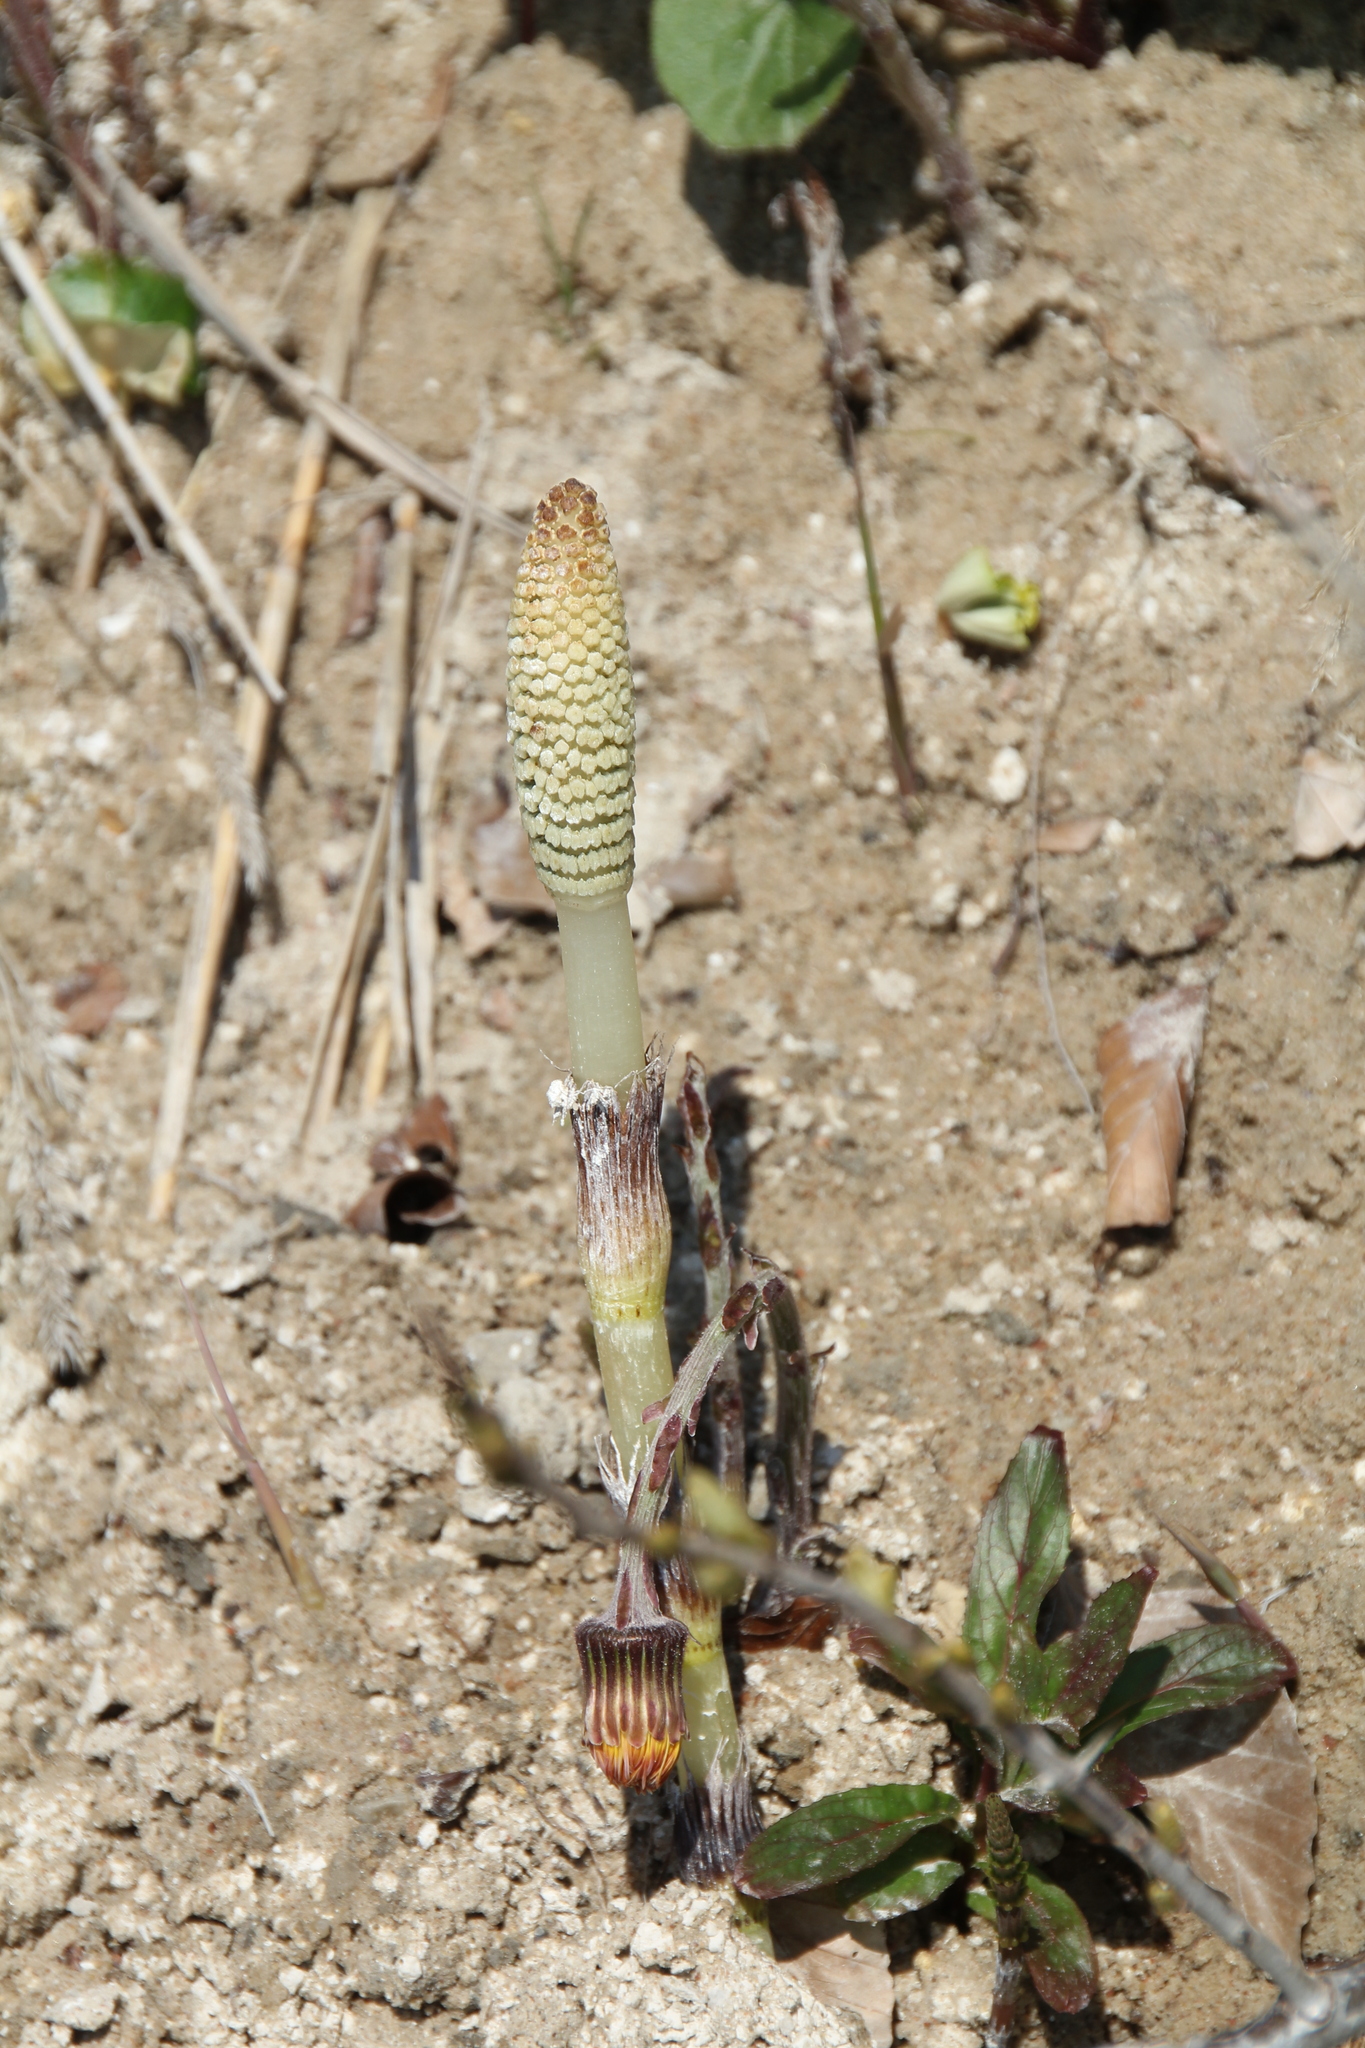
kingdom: Plantae
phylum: Tracheophyta
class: Polypodiopsida
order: Equisetales
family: Equisetaceae
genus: Equisetum
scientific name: Equisetum telmateia
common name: Great horsetail
